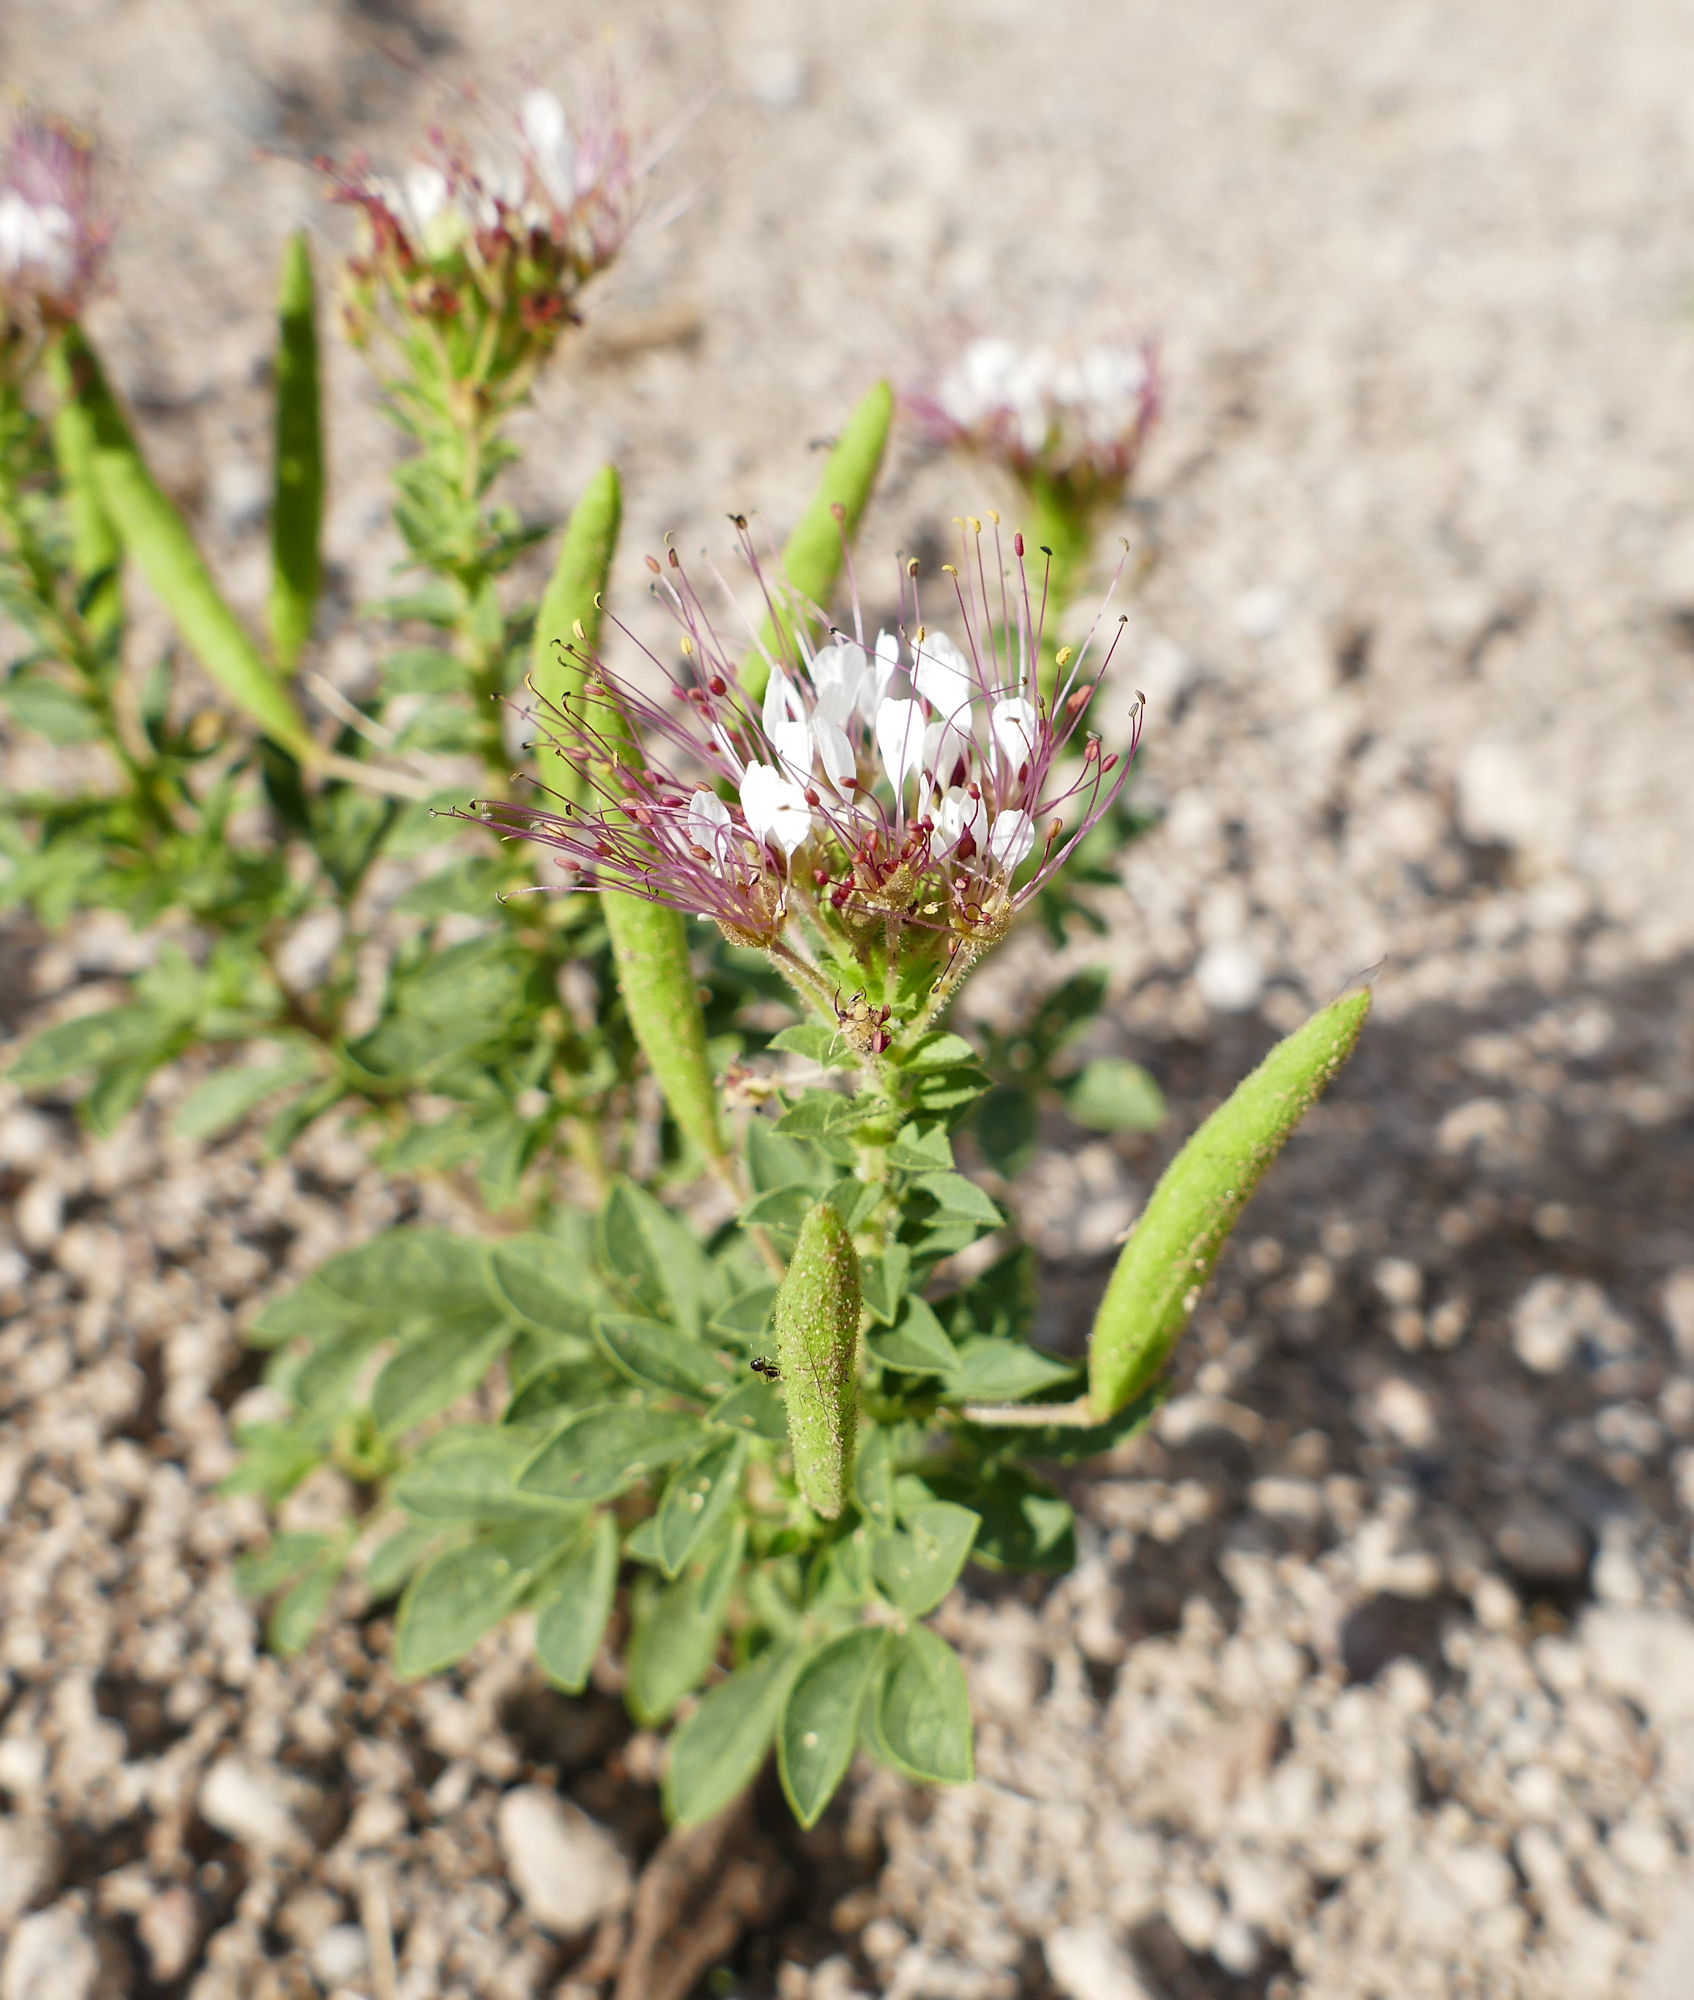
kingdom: Plantae
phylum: Tracheophyta
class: Magnoliopsida
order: Brassicales
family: Cleomaceae
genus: Polanisia
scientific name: Polanisia dodecandra
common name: Clammyweed
